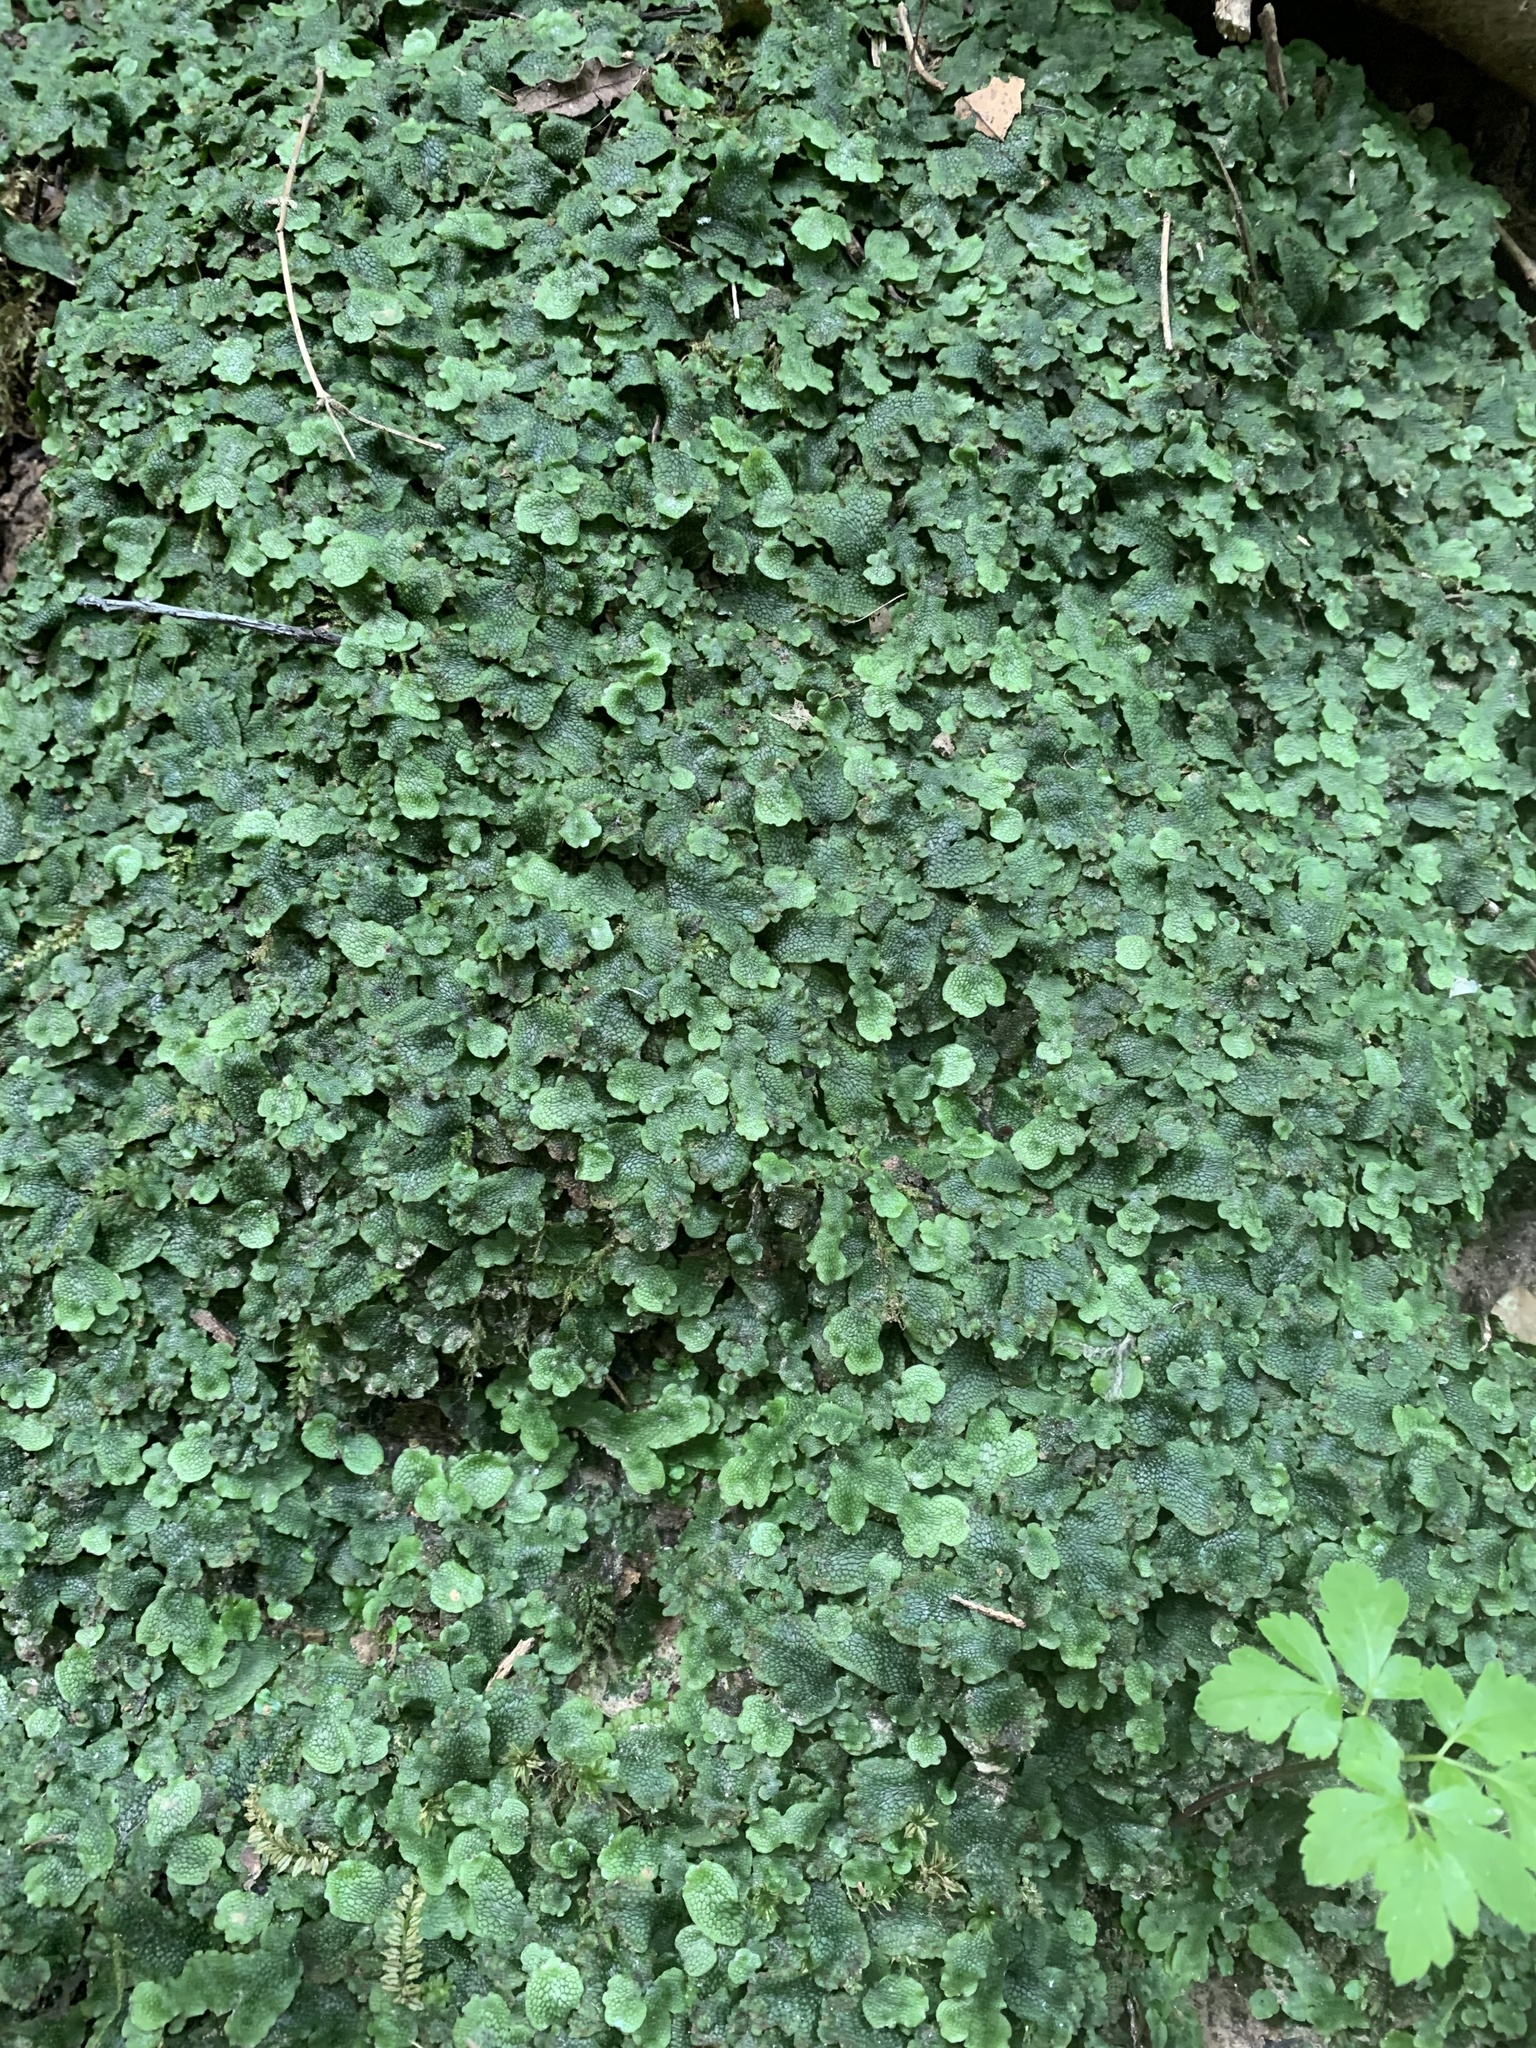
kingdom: Plantae
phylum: Marchantiophyta
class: Marchantiopsida
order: Marchantiales
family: Conocephalaceae
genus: Conocephalum
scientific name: Conocephalum salebrosum
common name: Cat-tongue liverwort
